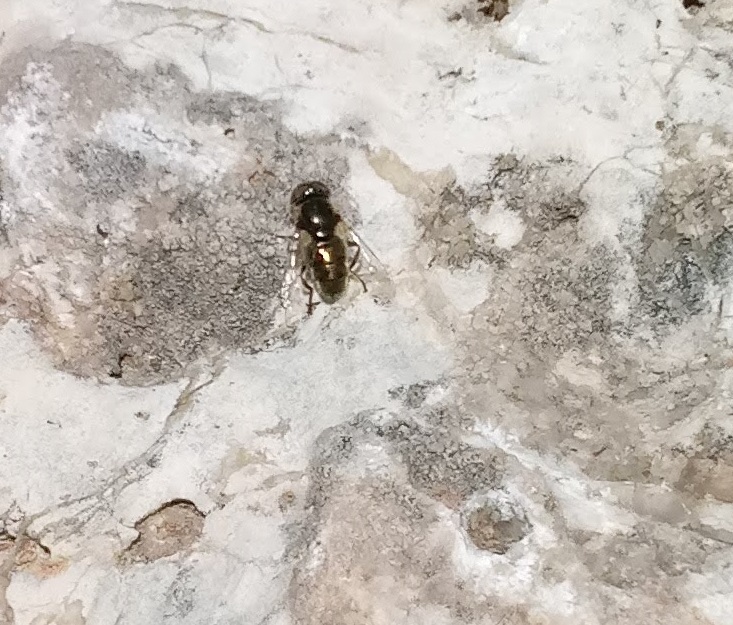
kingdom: Animalia
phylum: Arthropoda
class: Insecta
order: Diptera
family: Syrphidae
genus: Eristalinus
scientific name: Eristalinus aeneus
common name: Syrphid fly
